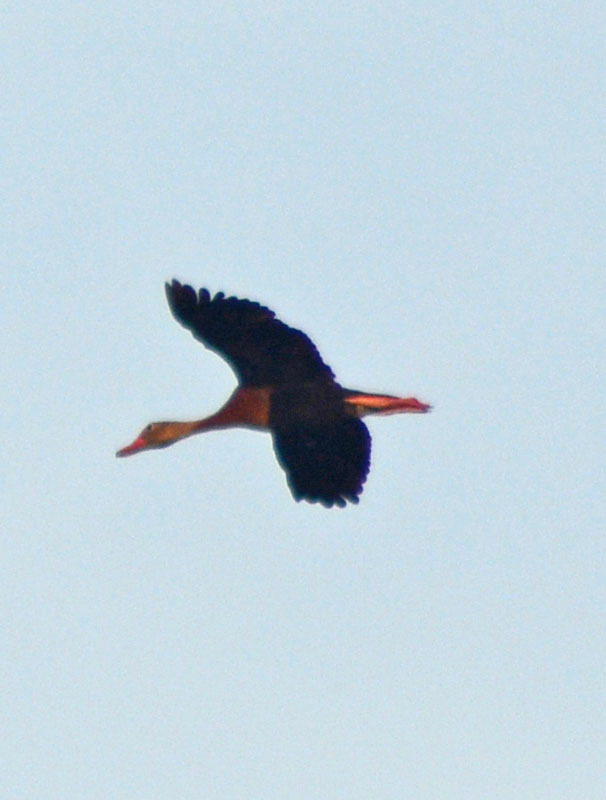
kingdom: Animalia
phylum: Chordata
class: Aves
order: Anseriformes
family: Anatidae
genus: Dendrocygna
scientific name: Dendrocygna autumnalis
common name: Black-bellied whistling duck
